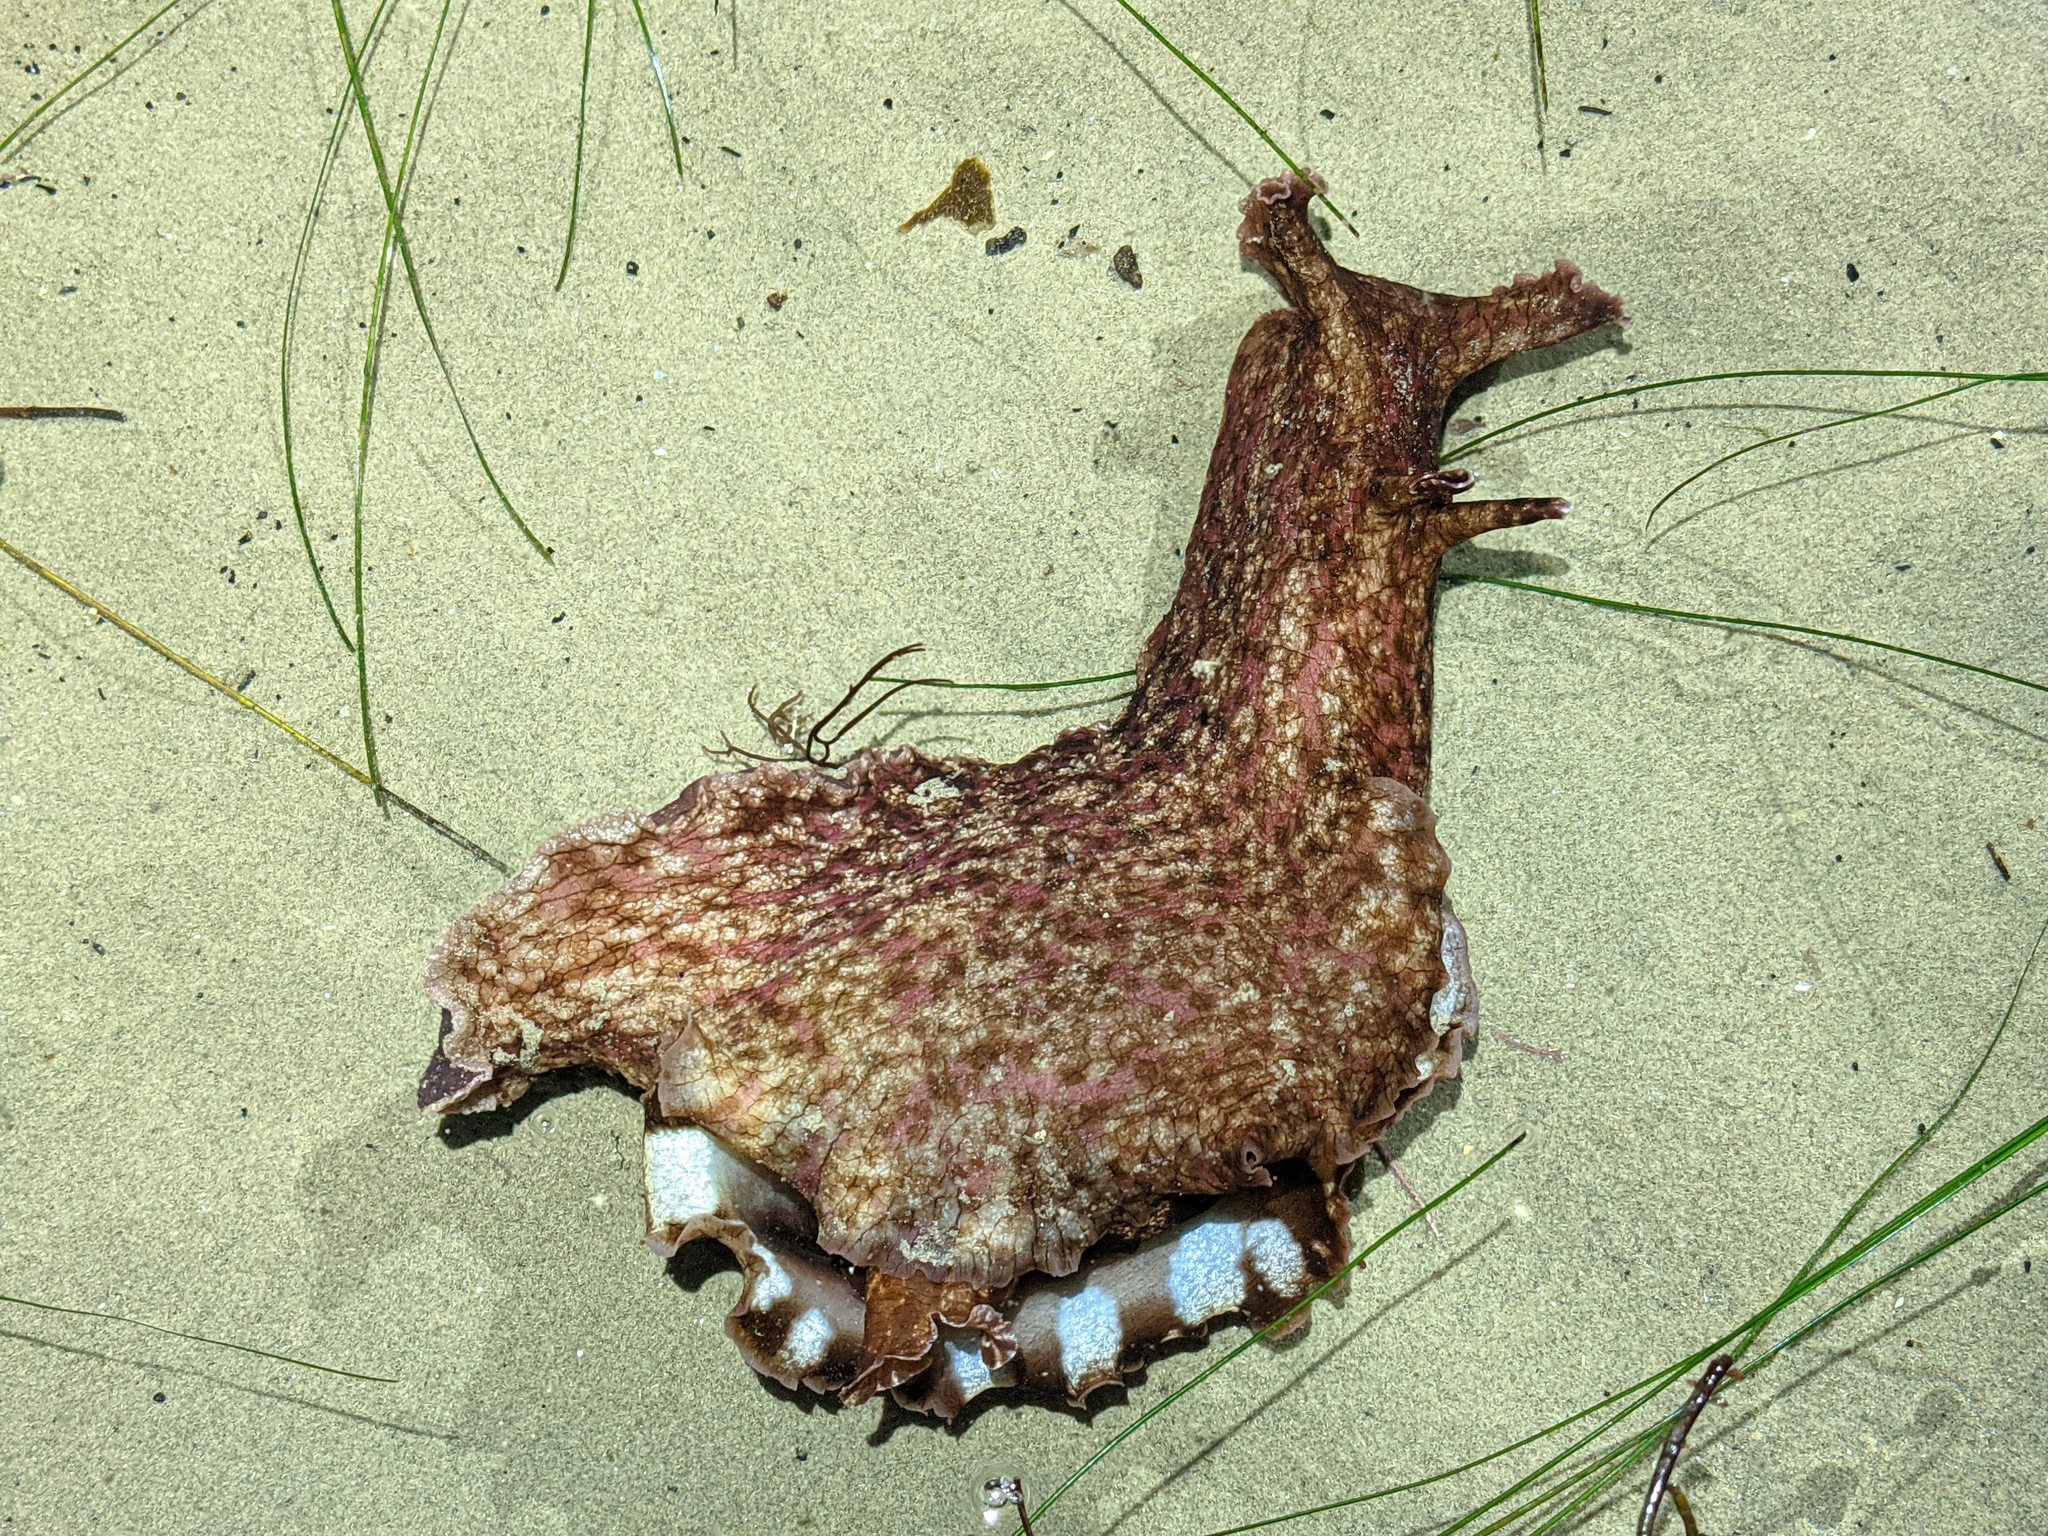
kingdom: Animalia
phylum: Mollusca
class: Gastropoda
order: Aplysiida
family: Aplysiidae
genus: Aplysia
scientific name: Aplysia californica
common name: California seahare
